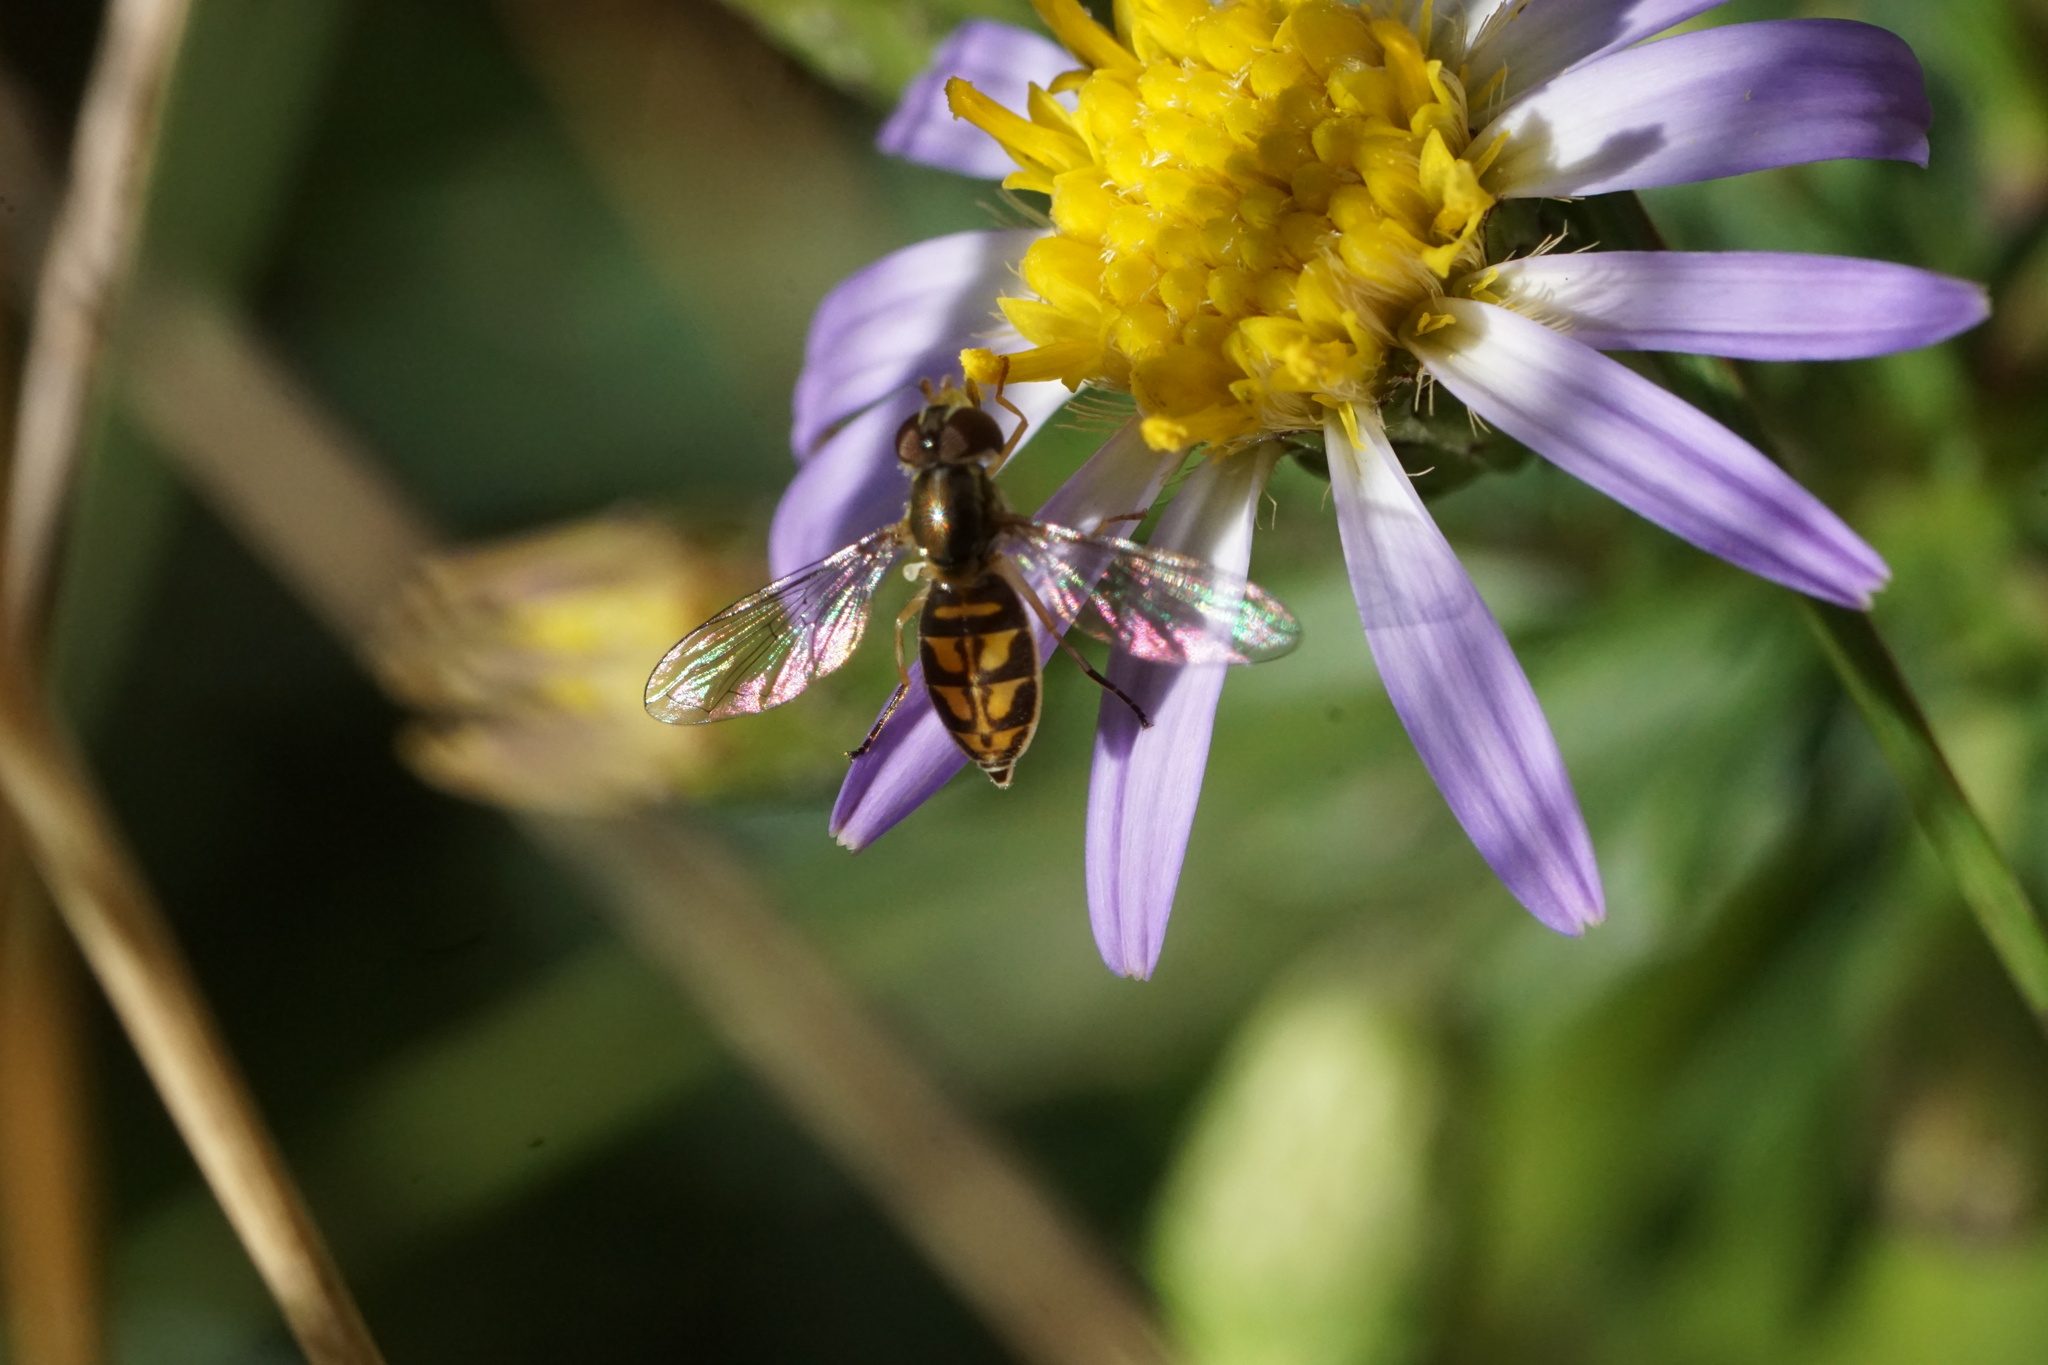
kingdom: Animalia
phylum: Arthropoda
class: Insecta
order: Diptera
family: Syrphidae
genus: Toxomerus
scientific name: Toxomerus marginatus
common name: Syrphid fly
